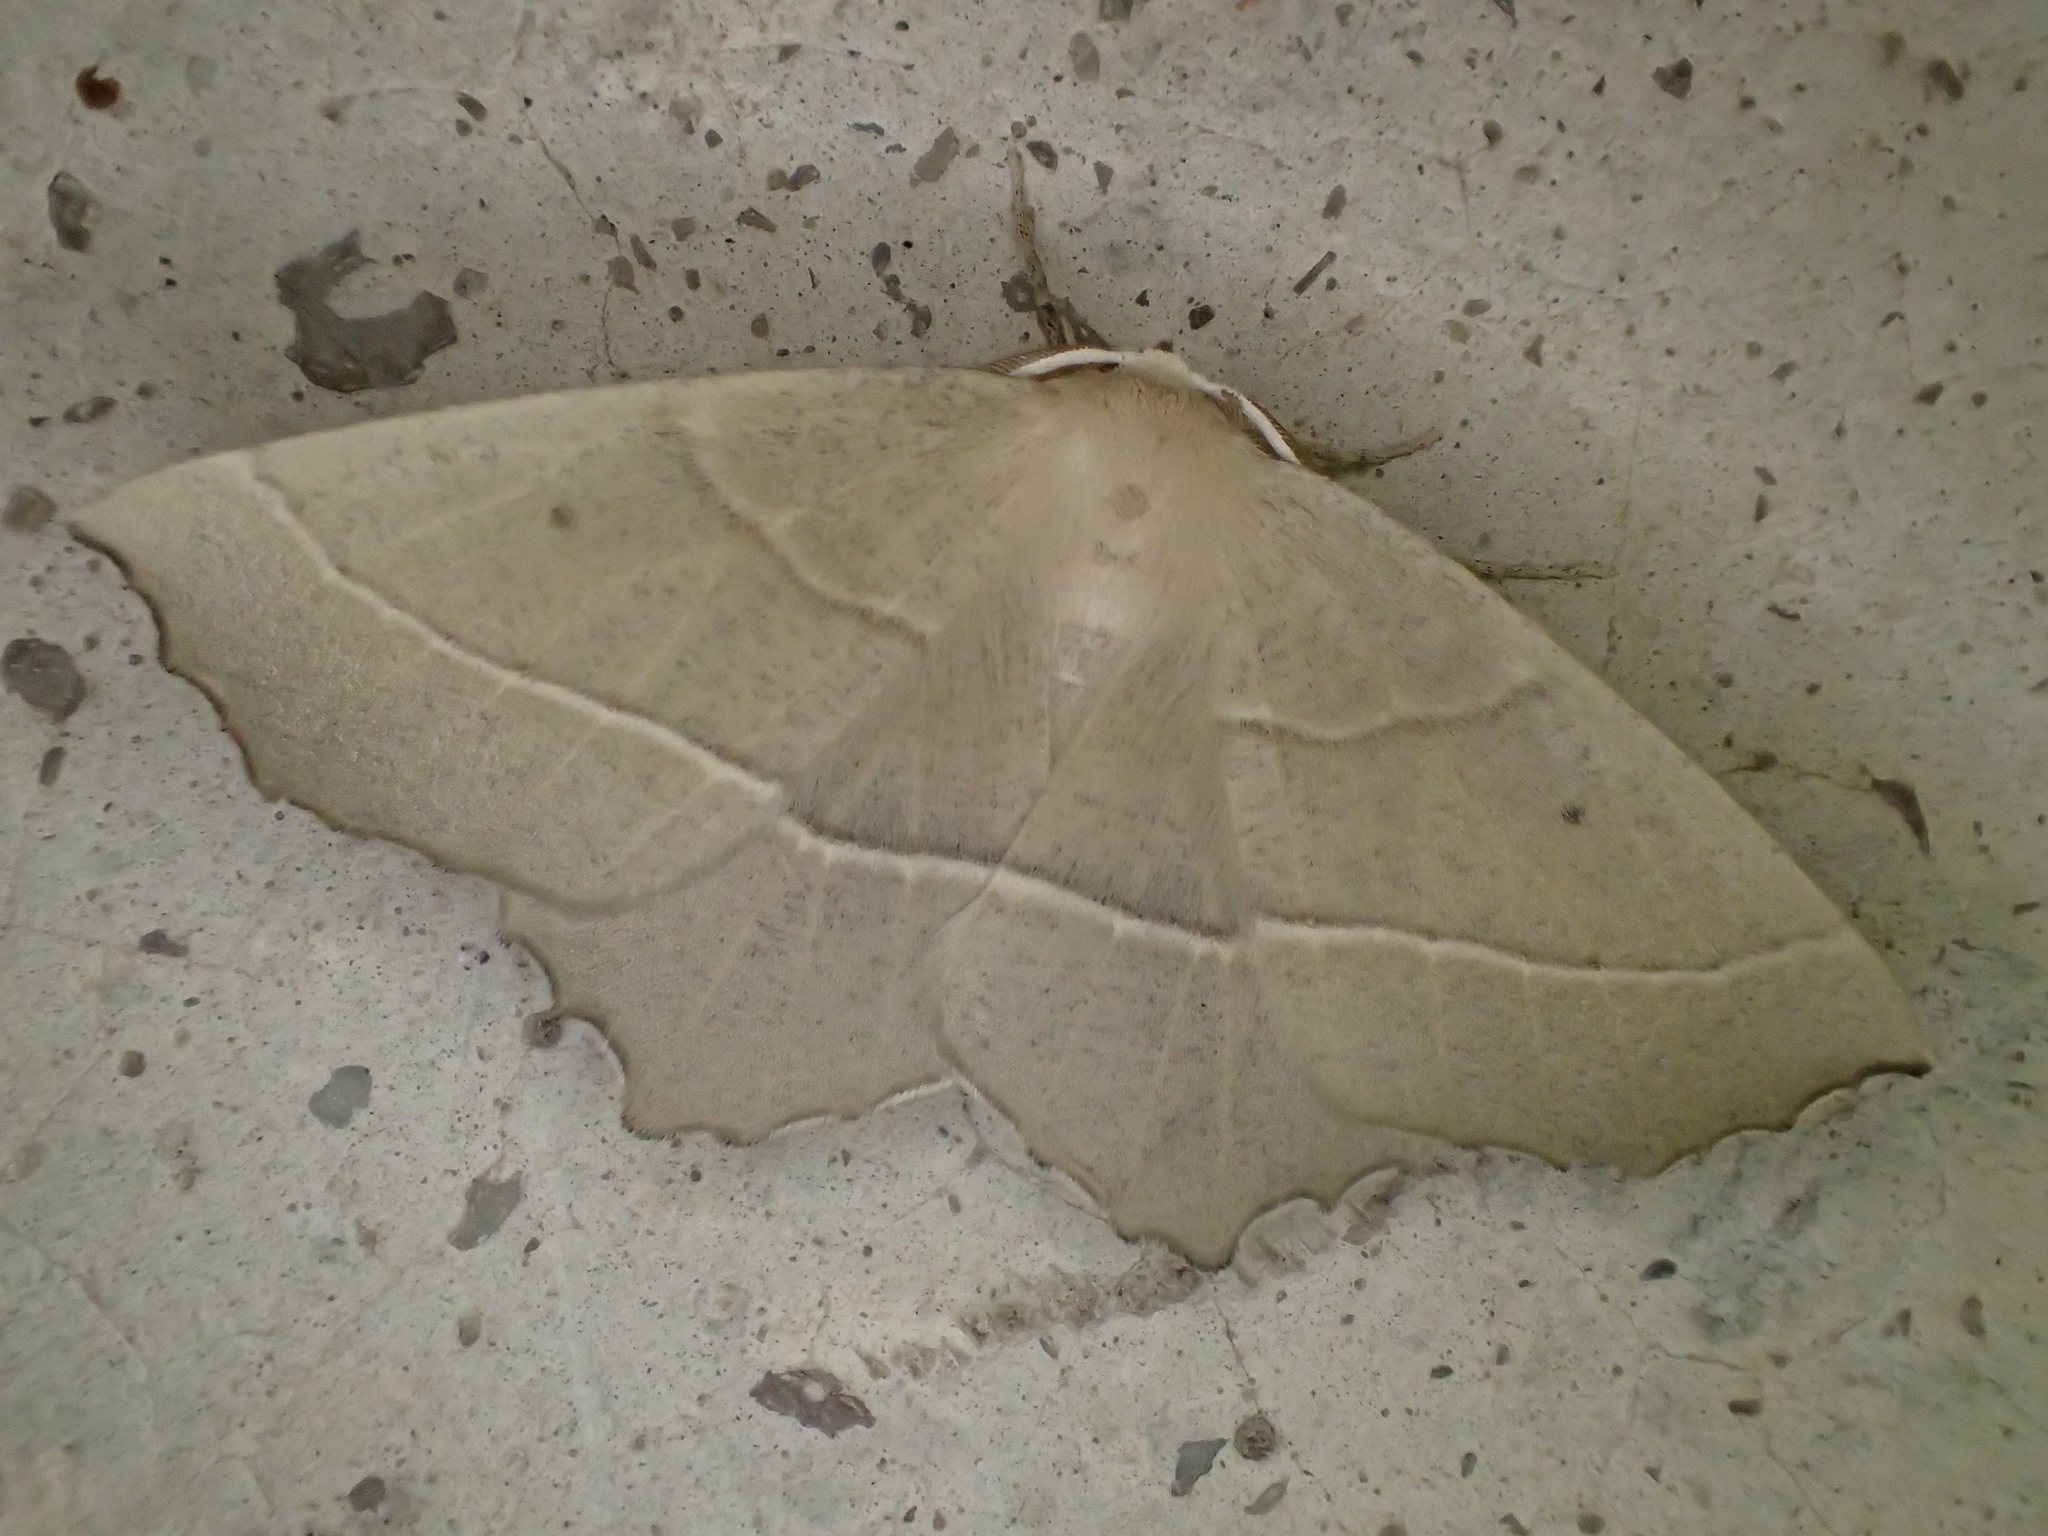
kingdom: Animalia
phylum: Arthropoda
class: Insecta
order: Lepidoptera
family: Geometridae
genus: Gerinia
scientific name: Gerinia honoraria
